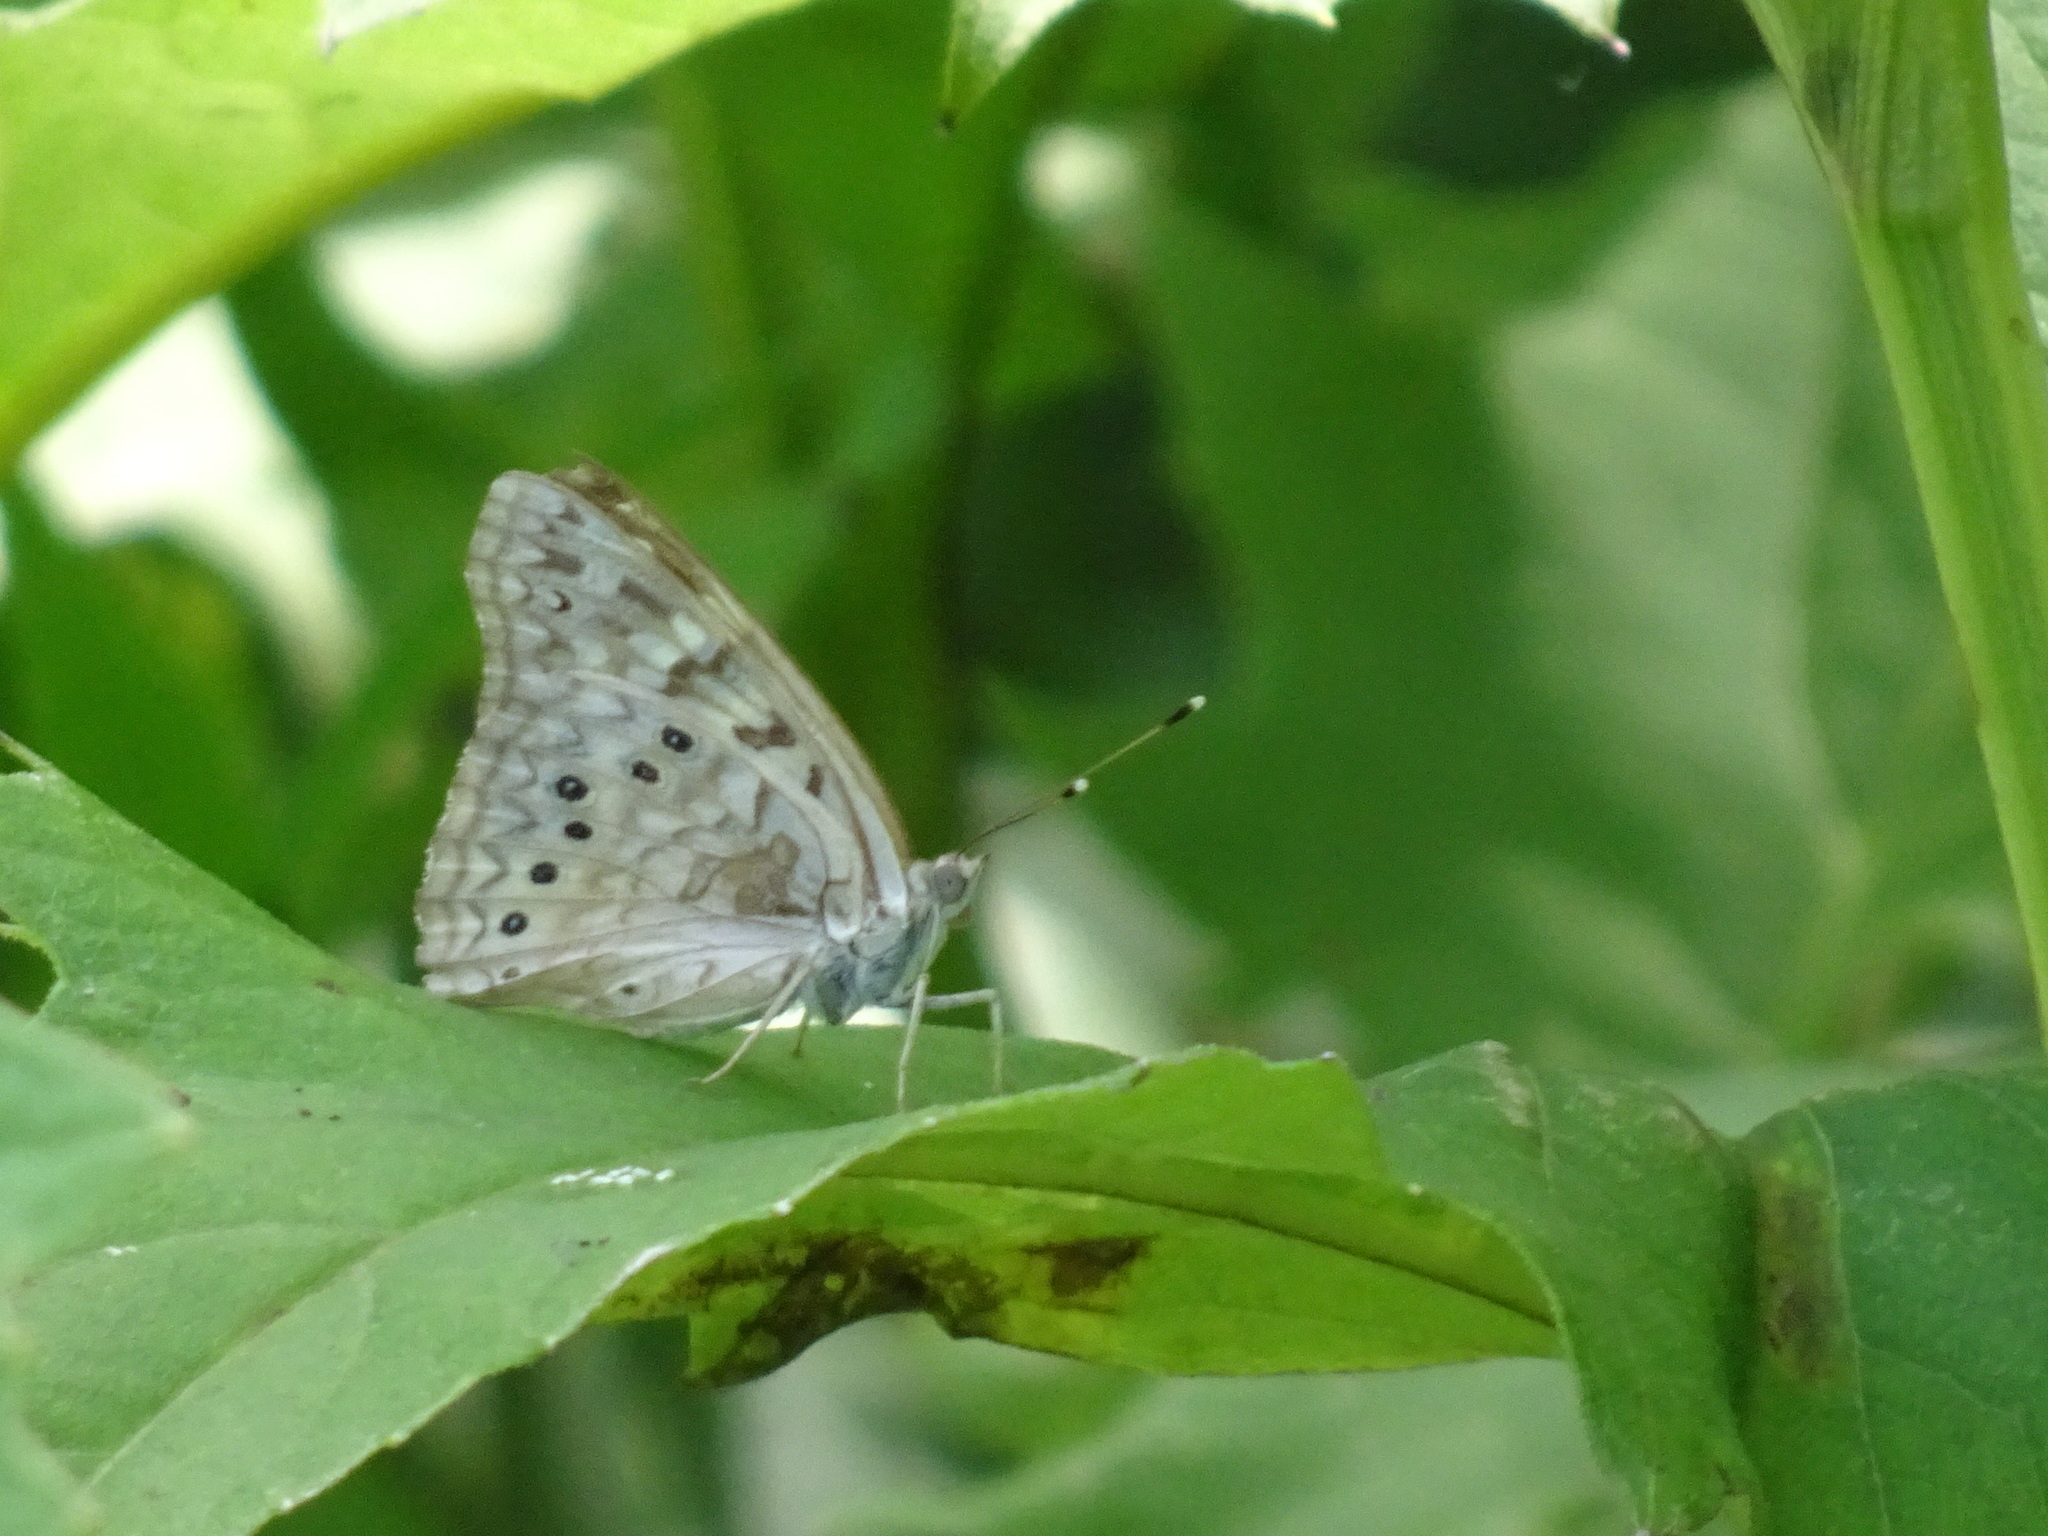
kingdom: Animalia
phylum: Arthropoda
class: Insecta
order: Lepidoptera
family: Nymphalidae
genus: Asterocampa
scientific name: Asterocampa celtis
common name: Hackberry emperor
